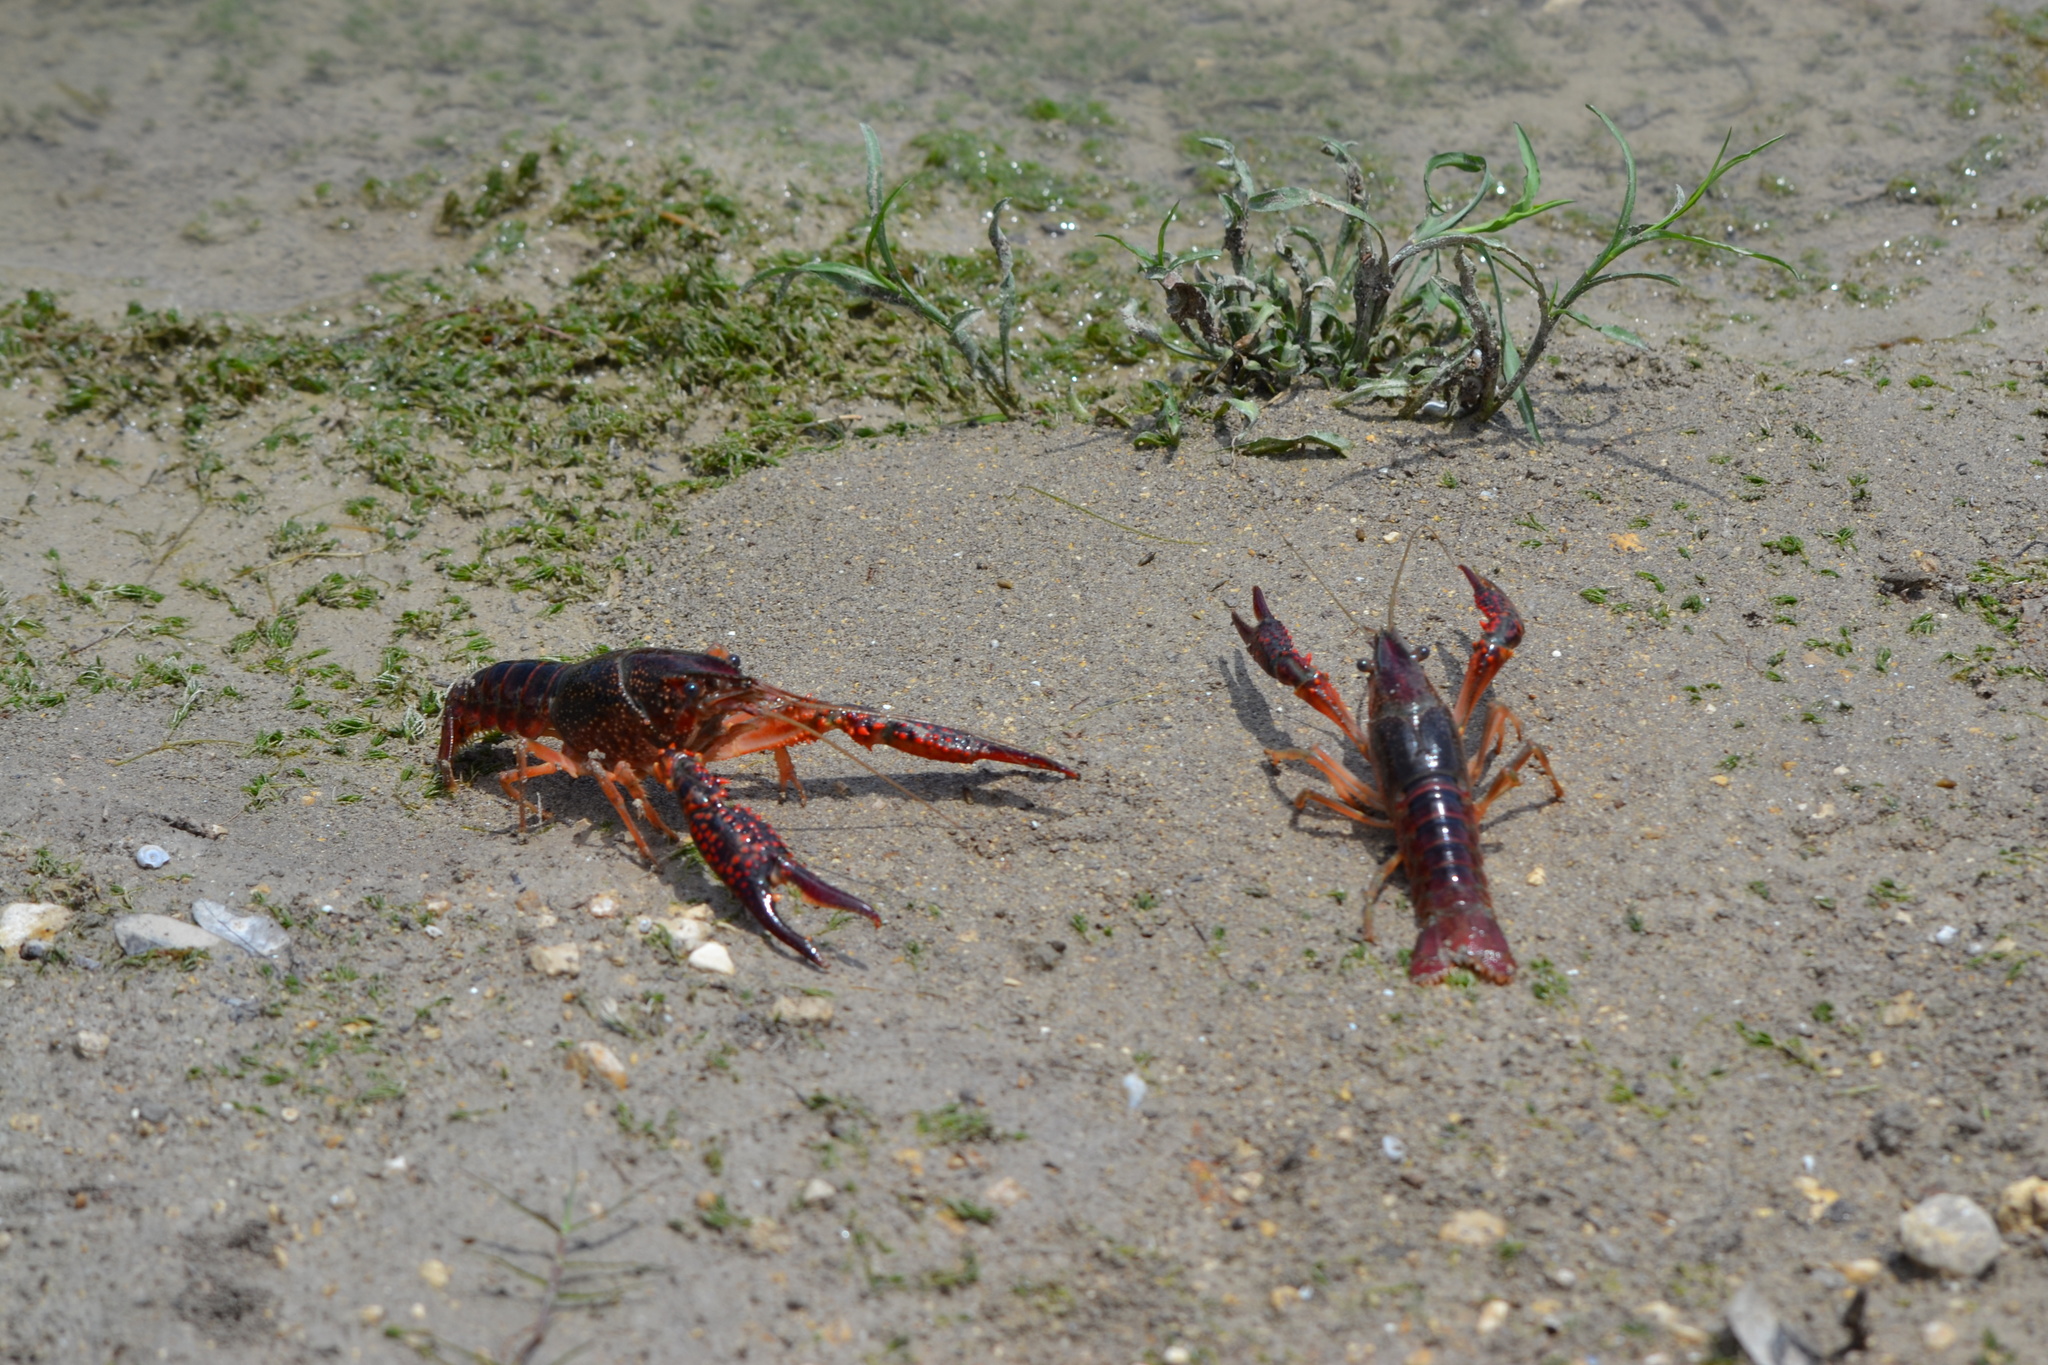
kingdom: Animalia
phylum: Arthropoda
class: Malacostraca
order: Decapoda
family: Cambaridae
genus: Procambarus
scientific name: Procambarus clarkii
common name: Red swamp crayfish
